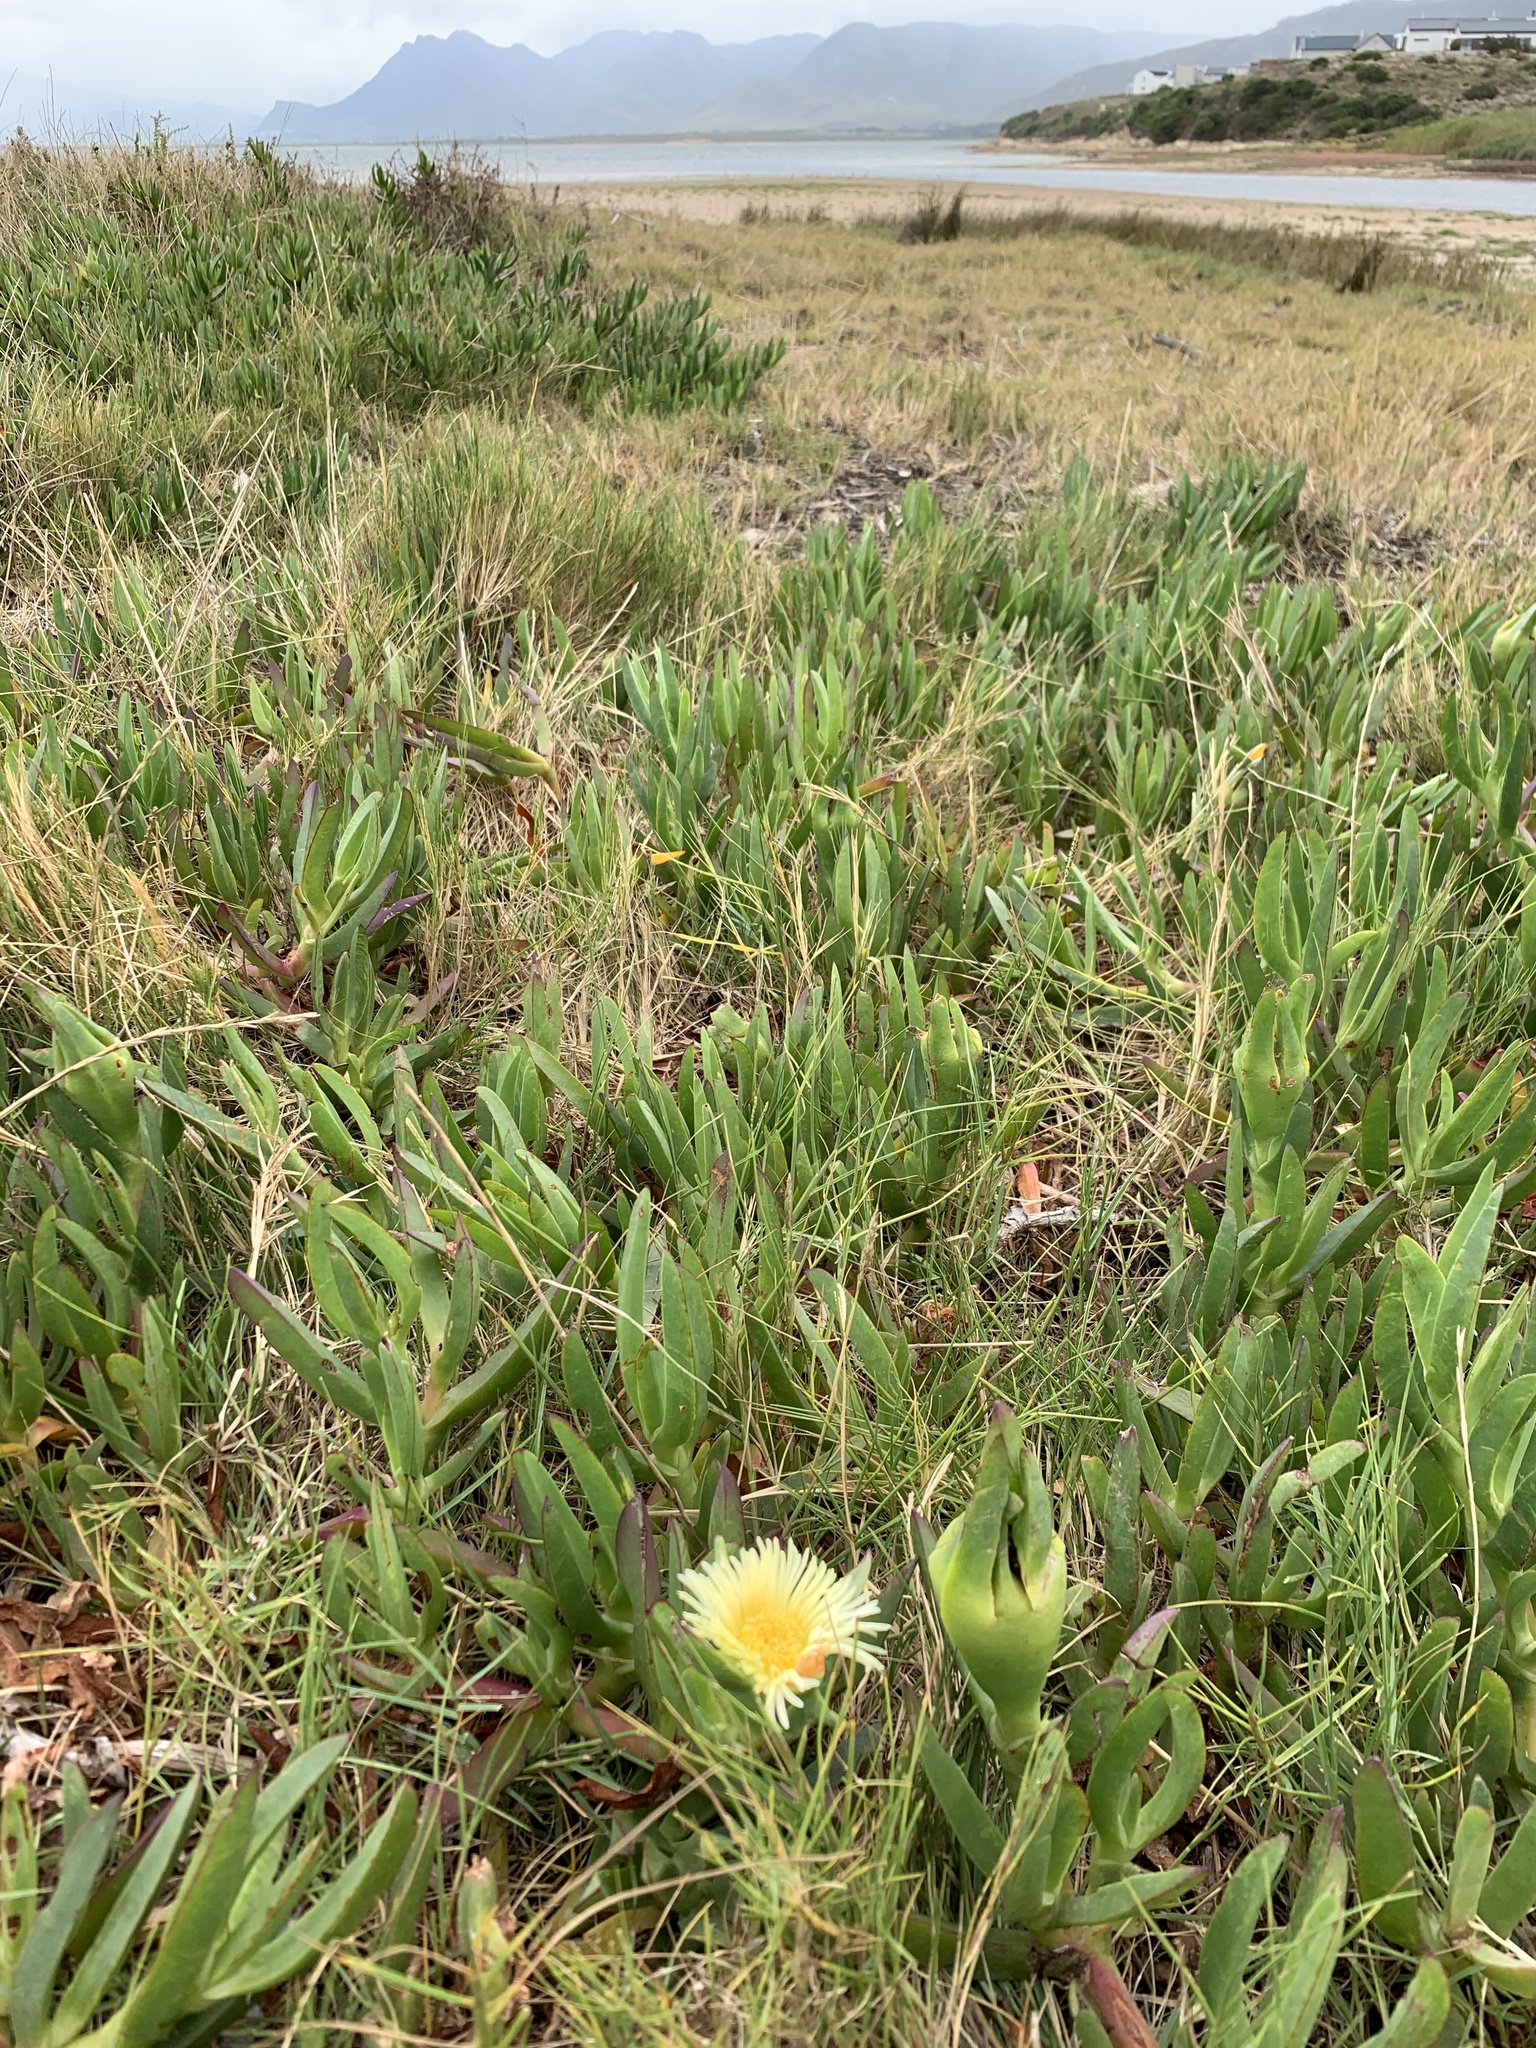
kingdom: Plantae
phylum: Tracheophyta
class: Magnoliopsida
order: Caryophyllales
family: Aizoaceae
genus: Carpobrotus
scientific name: Carpobrotus edulis
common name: Hottentot-fig
